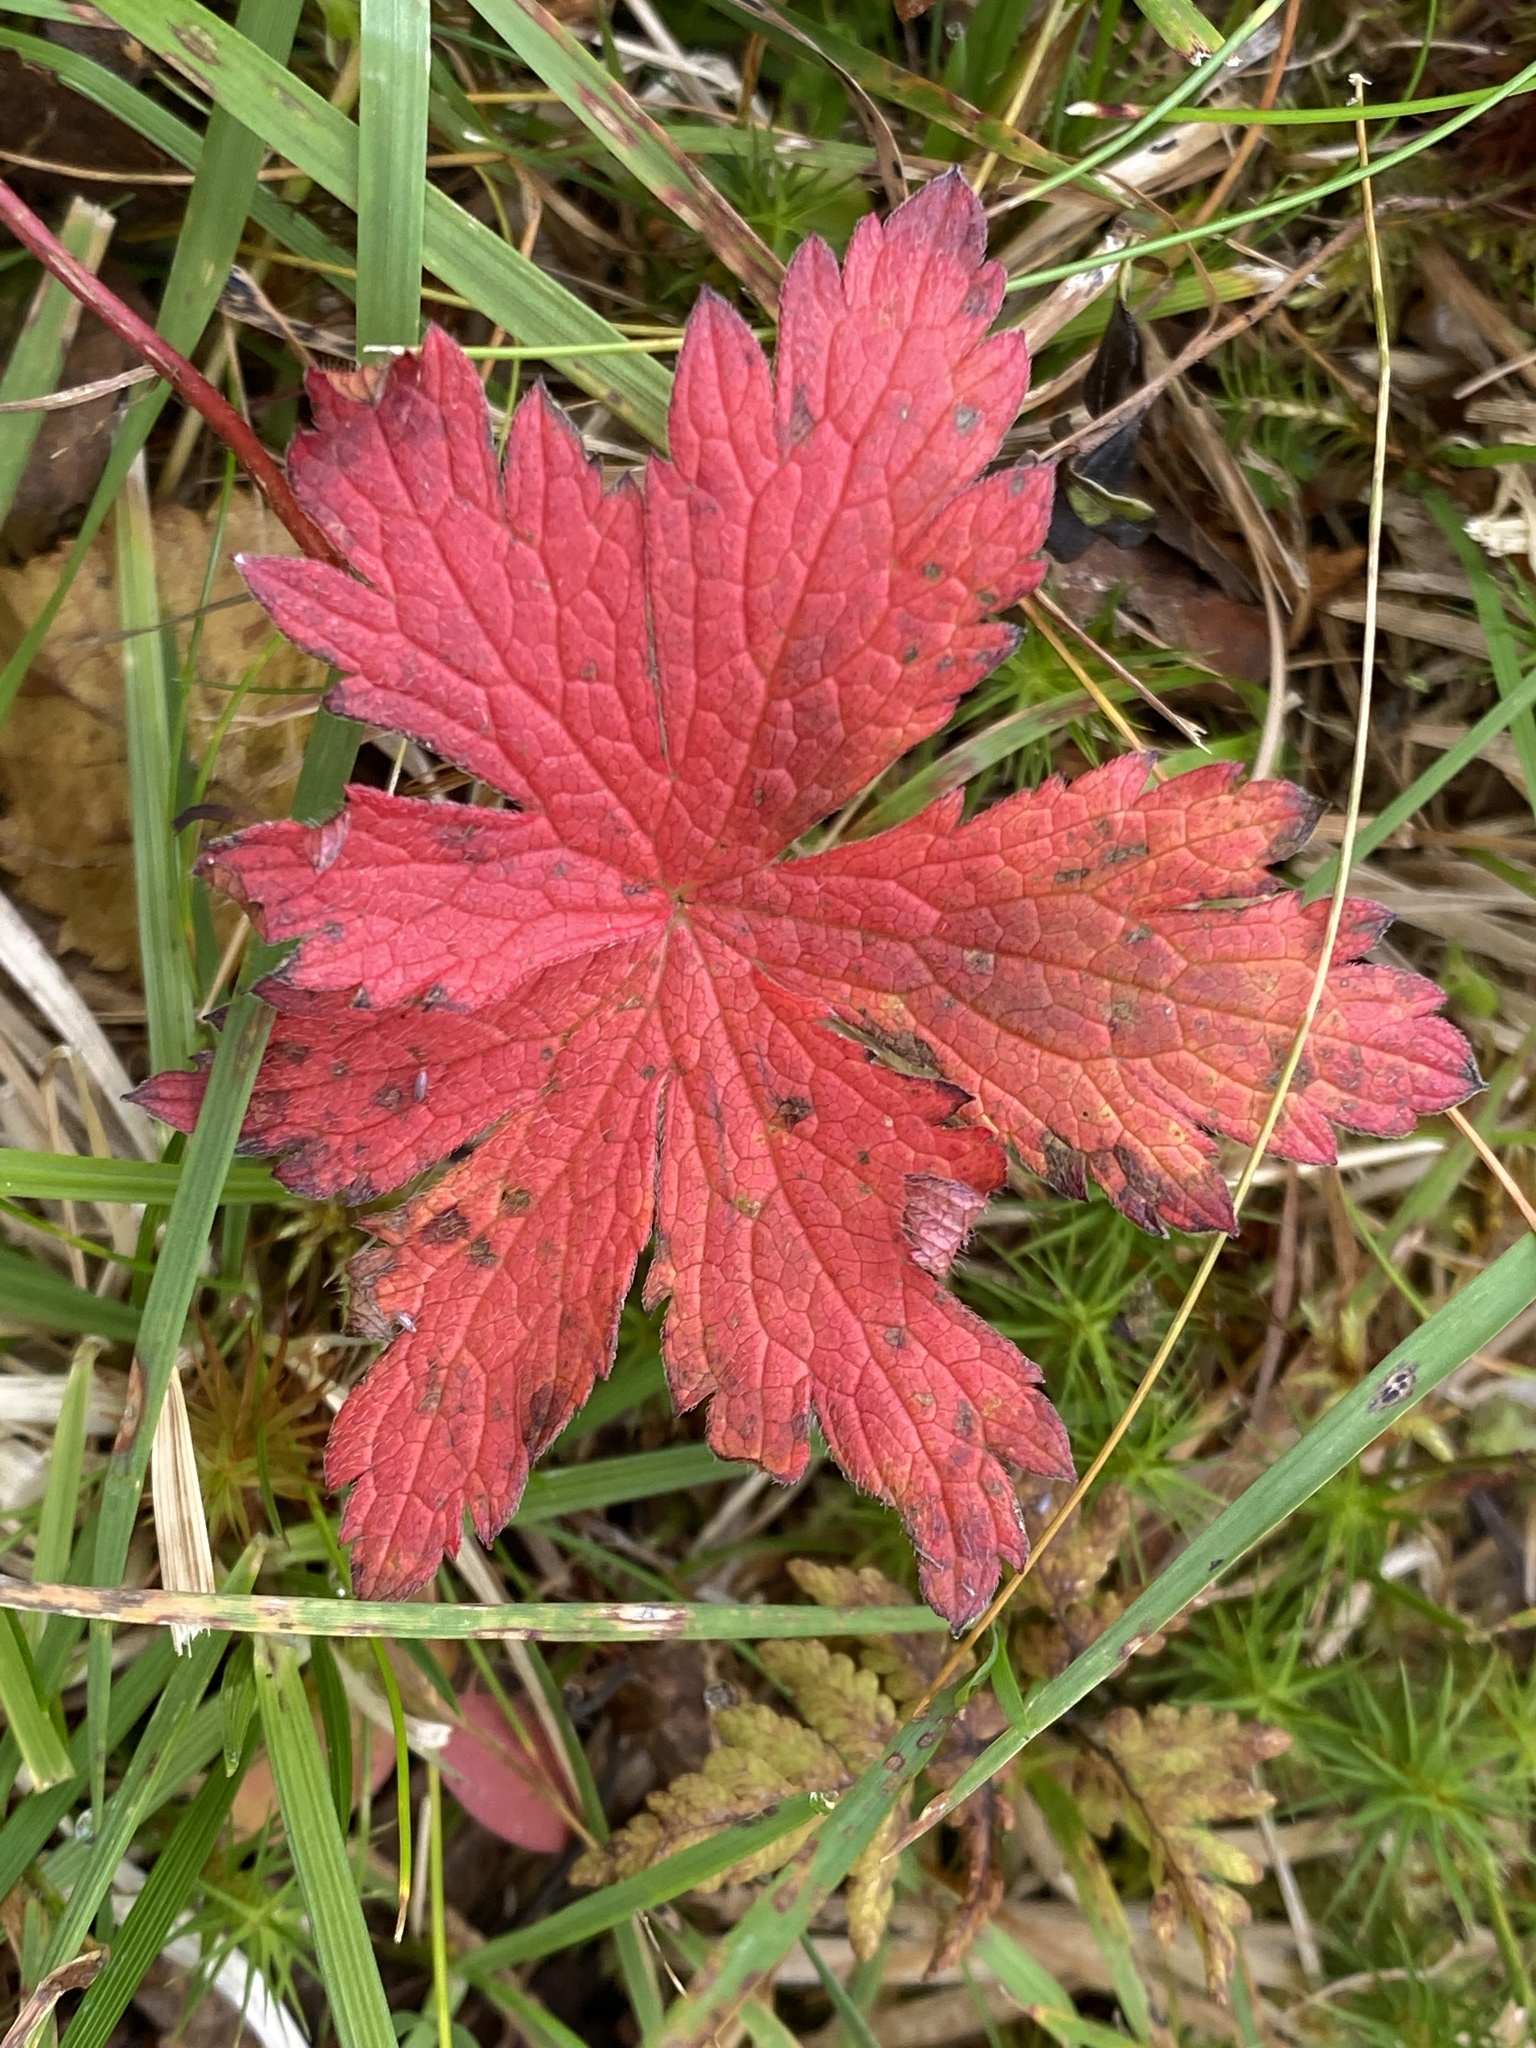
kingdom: Plantae
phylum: Tracheophyta
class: Magnoliopsida
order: Geraniales
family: Geraniaceae
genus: Geranium
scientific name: Geranium sylvaticum
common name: Wood crane's-bill
